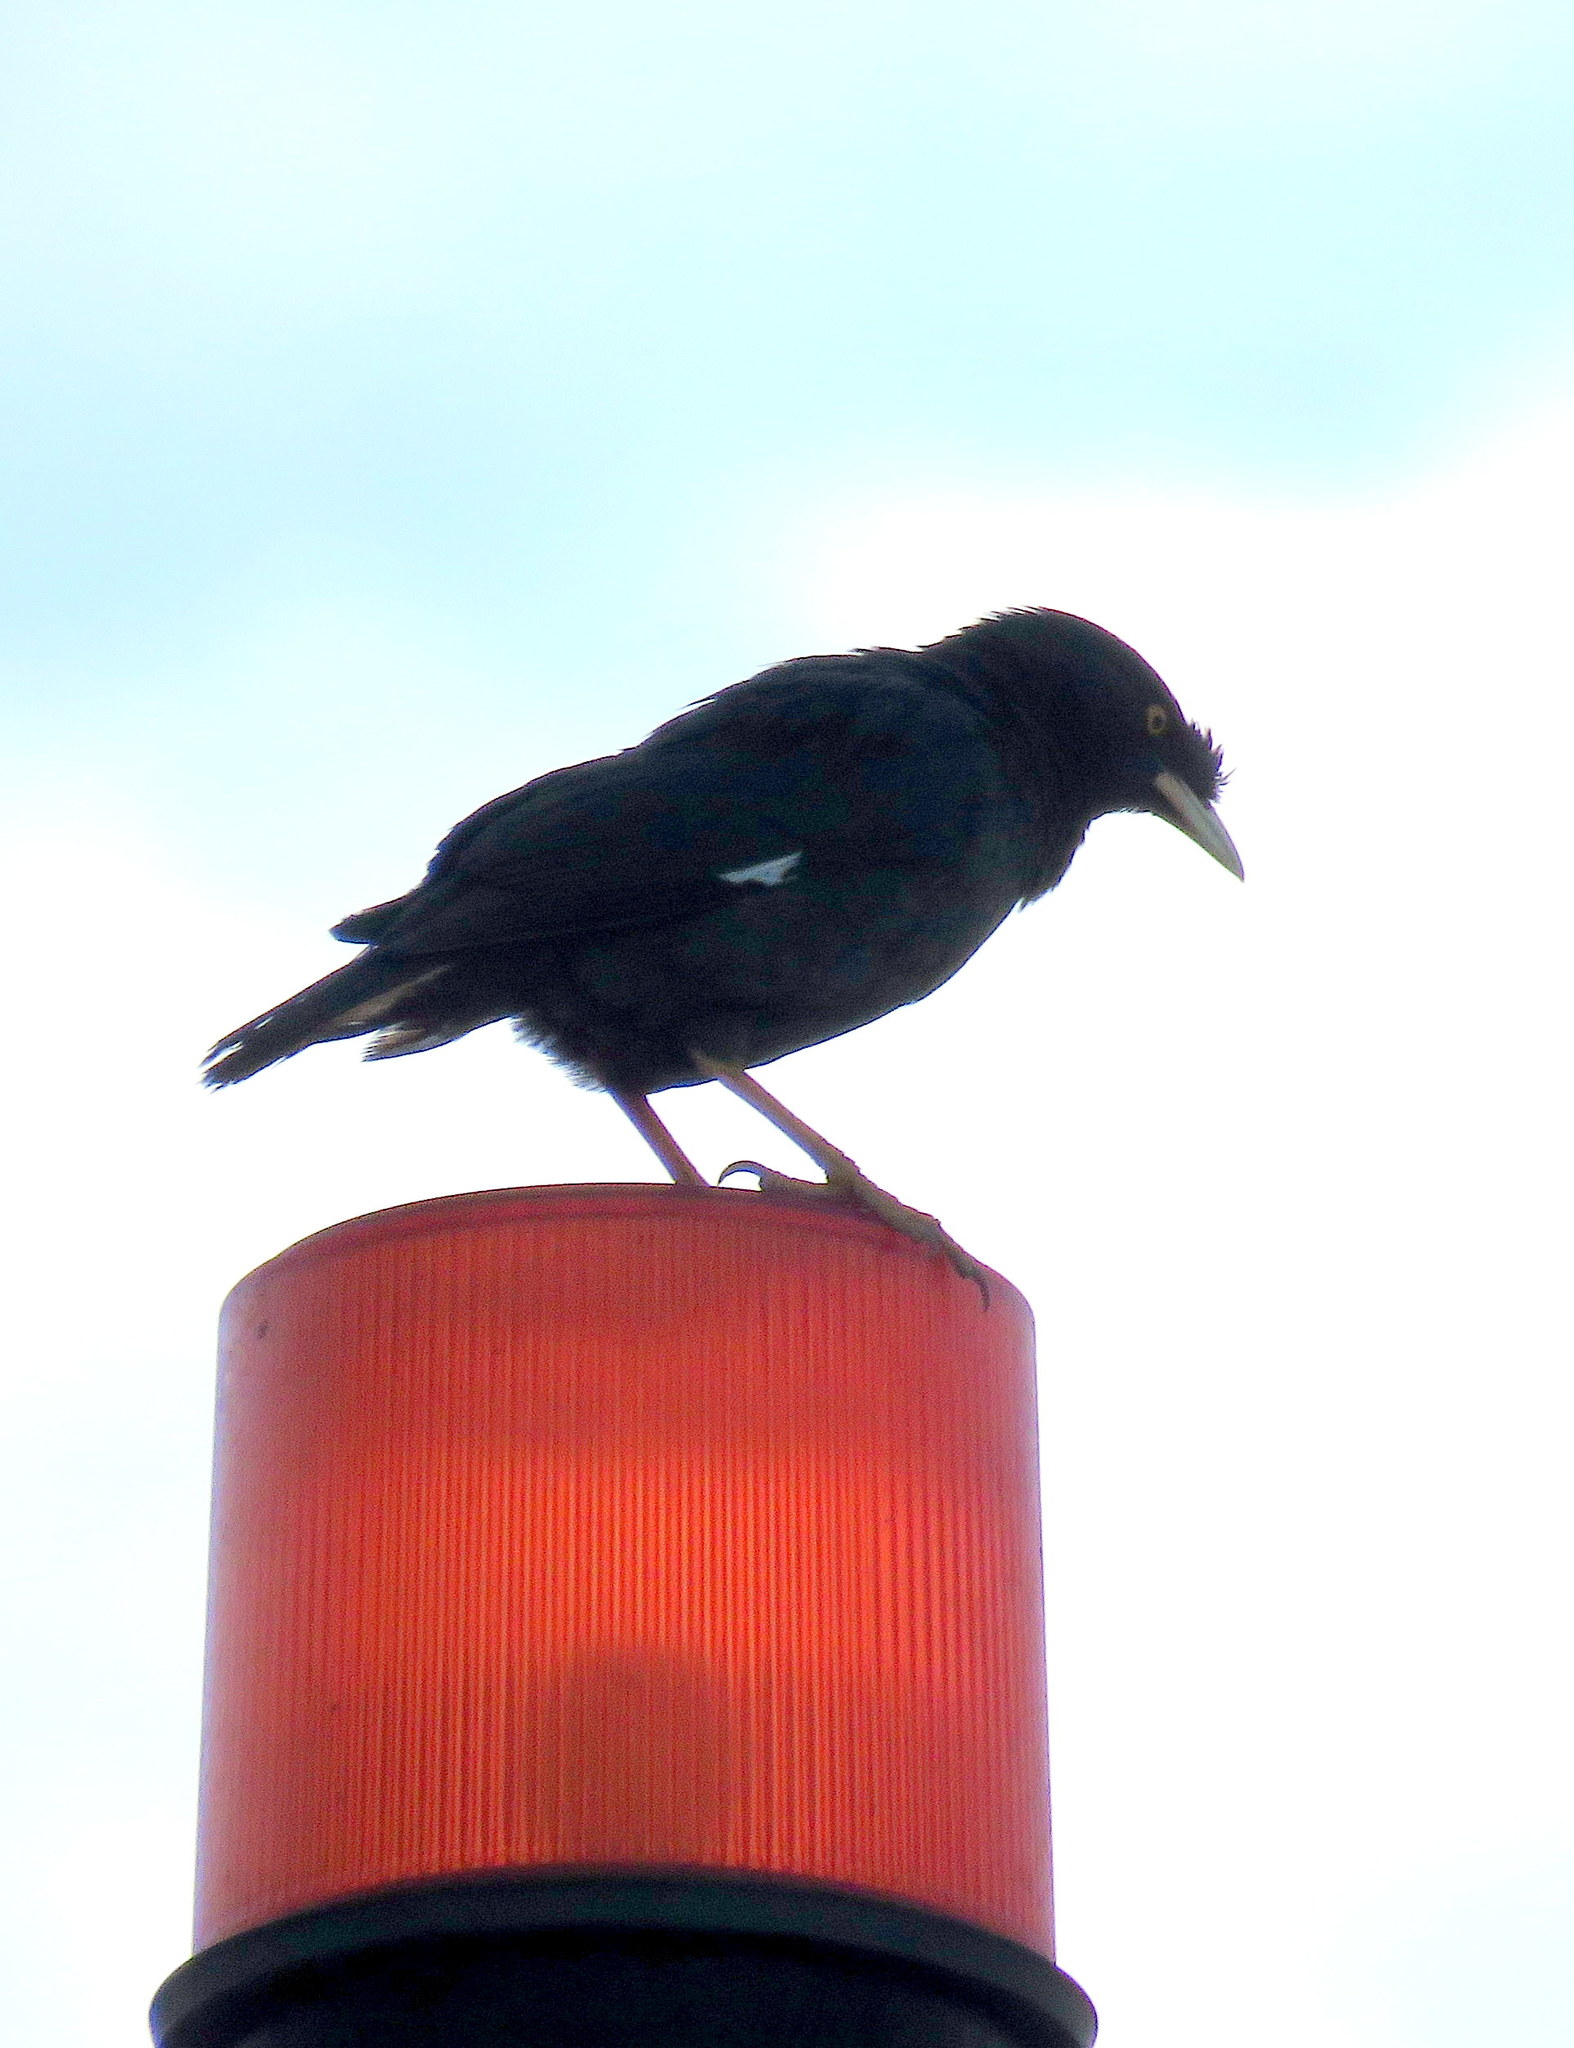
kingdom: Animalia
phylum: Chordata
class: Aves
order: Passeriformes
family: Sturnidae
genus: Acridotheres
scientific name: Acridotheres cristatellus
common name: Crested myna
